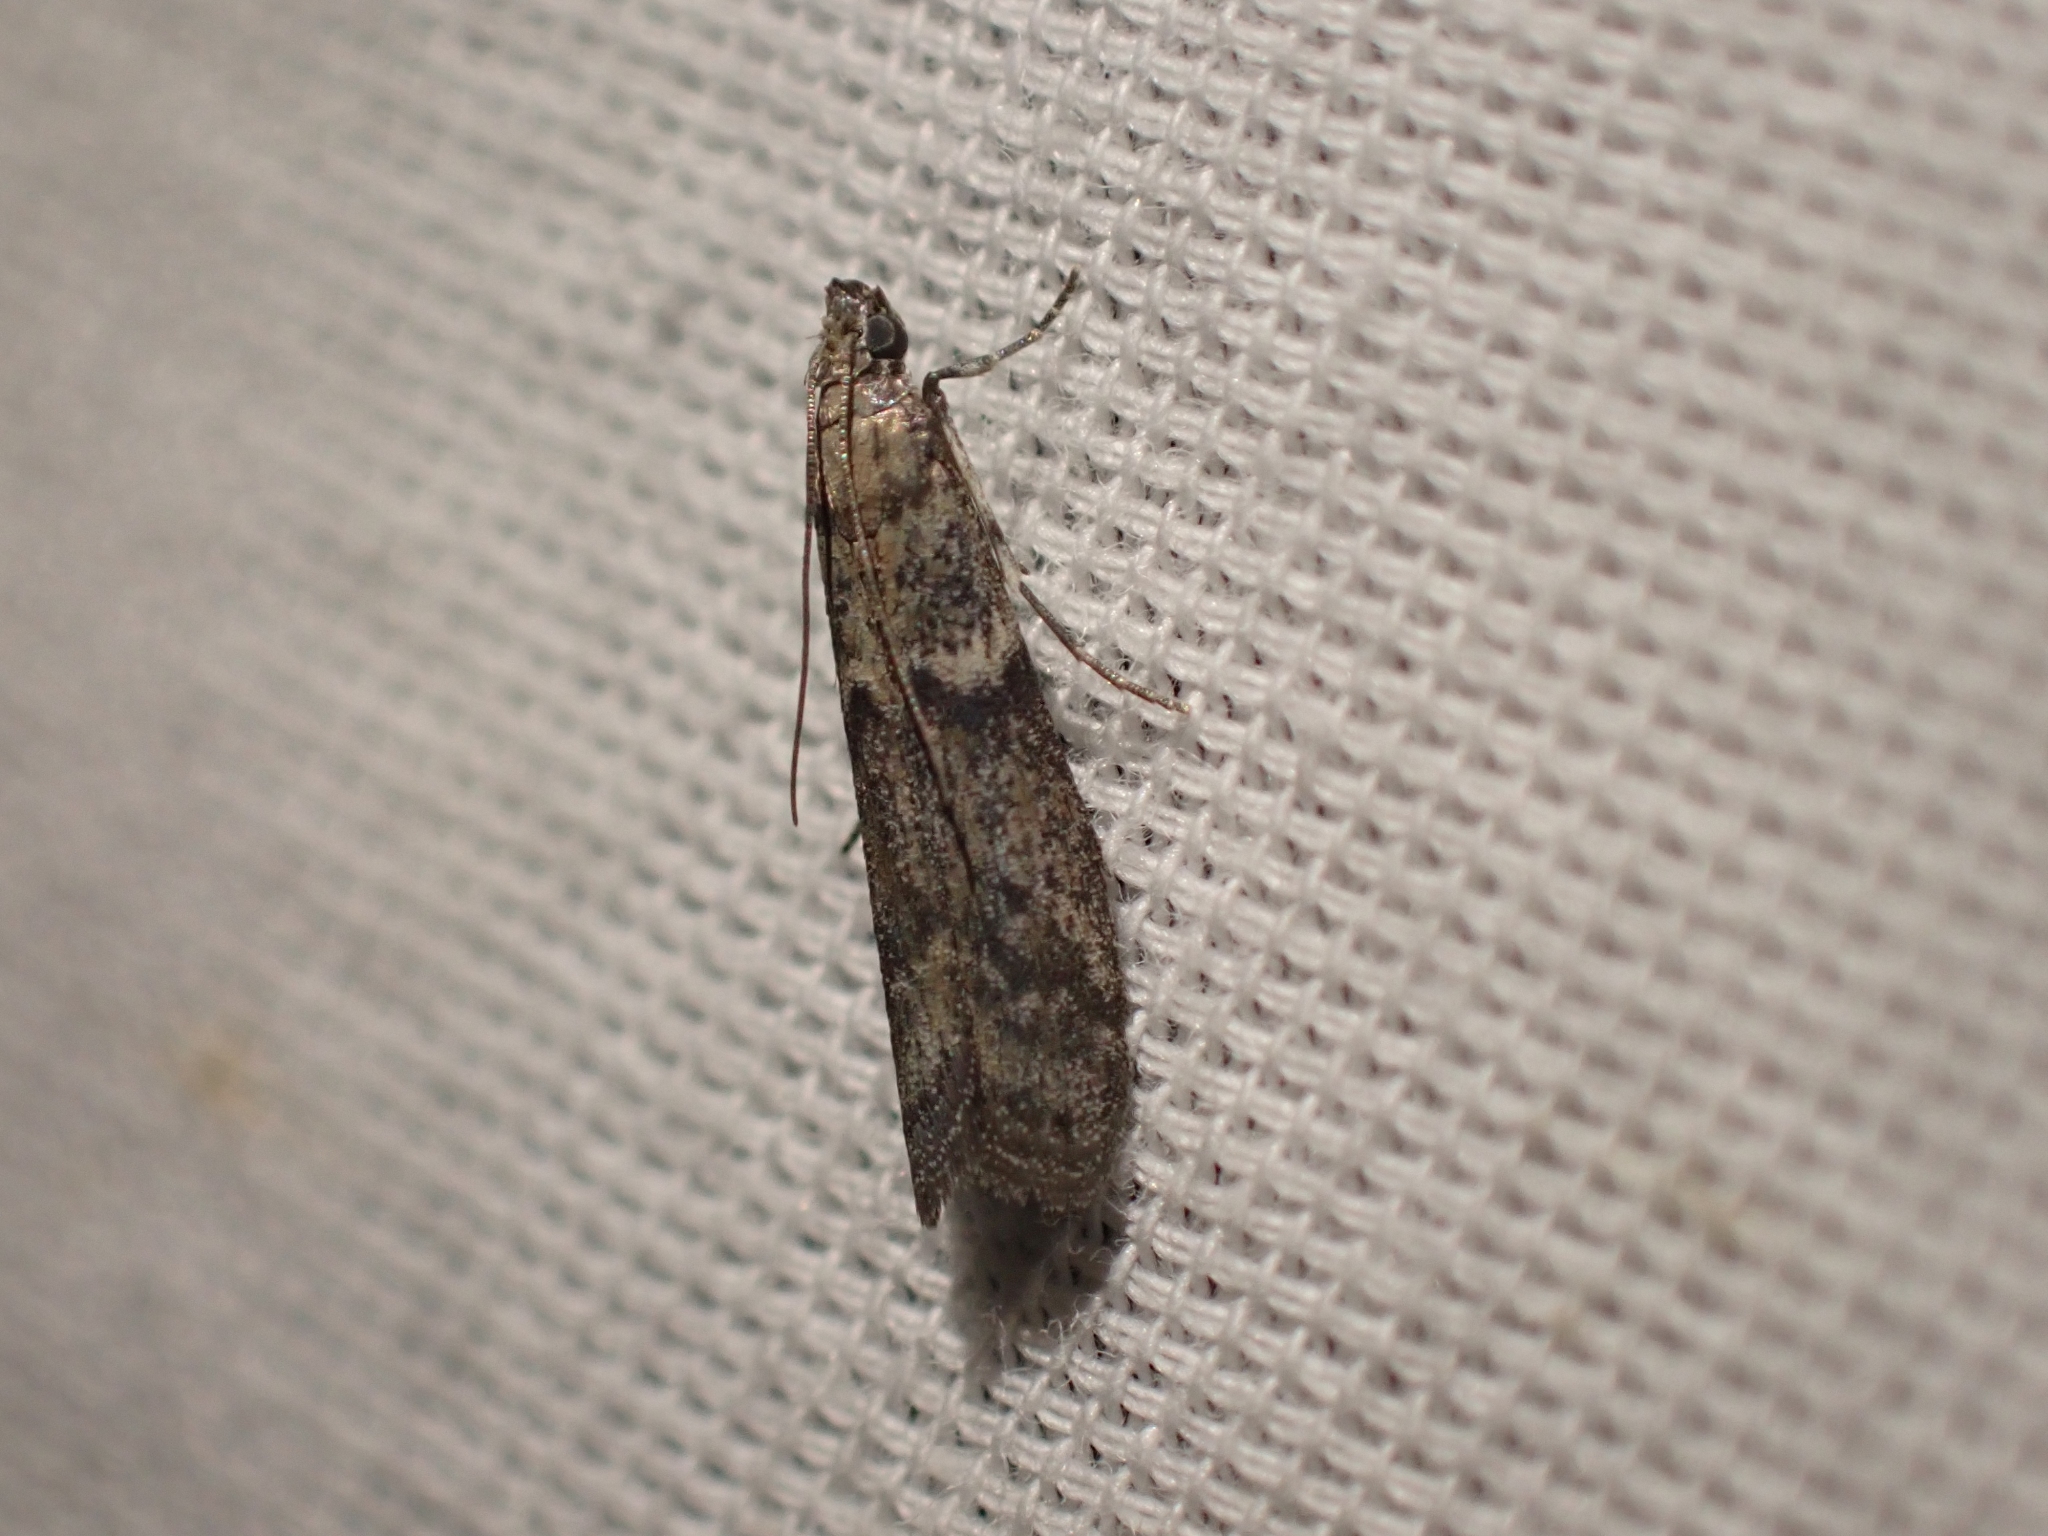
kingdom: Animalia
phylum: Arthropoda
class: Insecta
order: Lepidoptera
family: Pyralidae
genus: Ephestiodes
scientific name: Ephestiodes gilvescentella
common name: Moth
